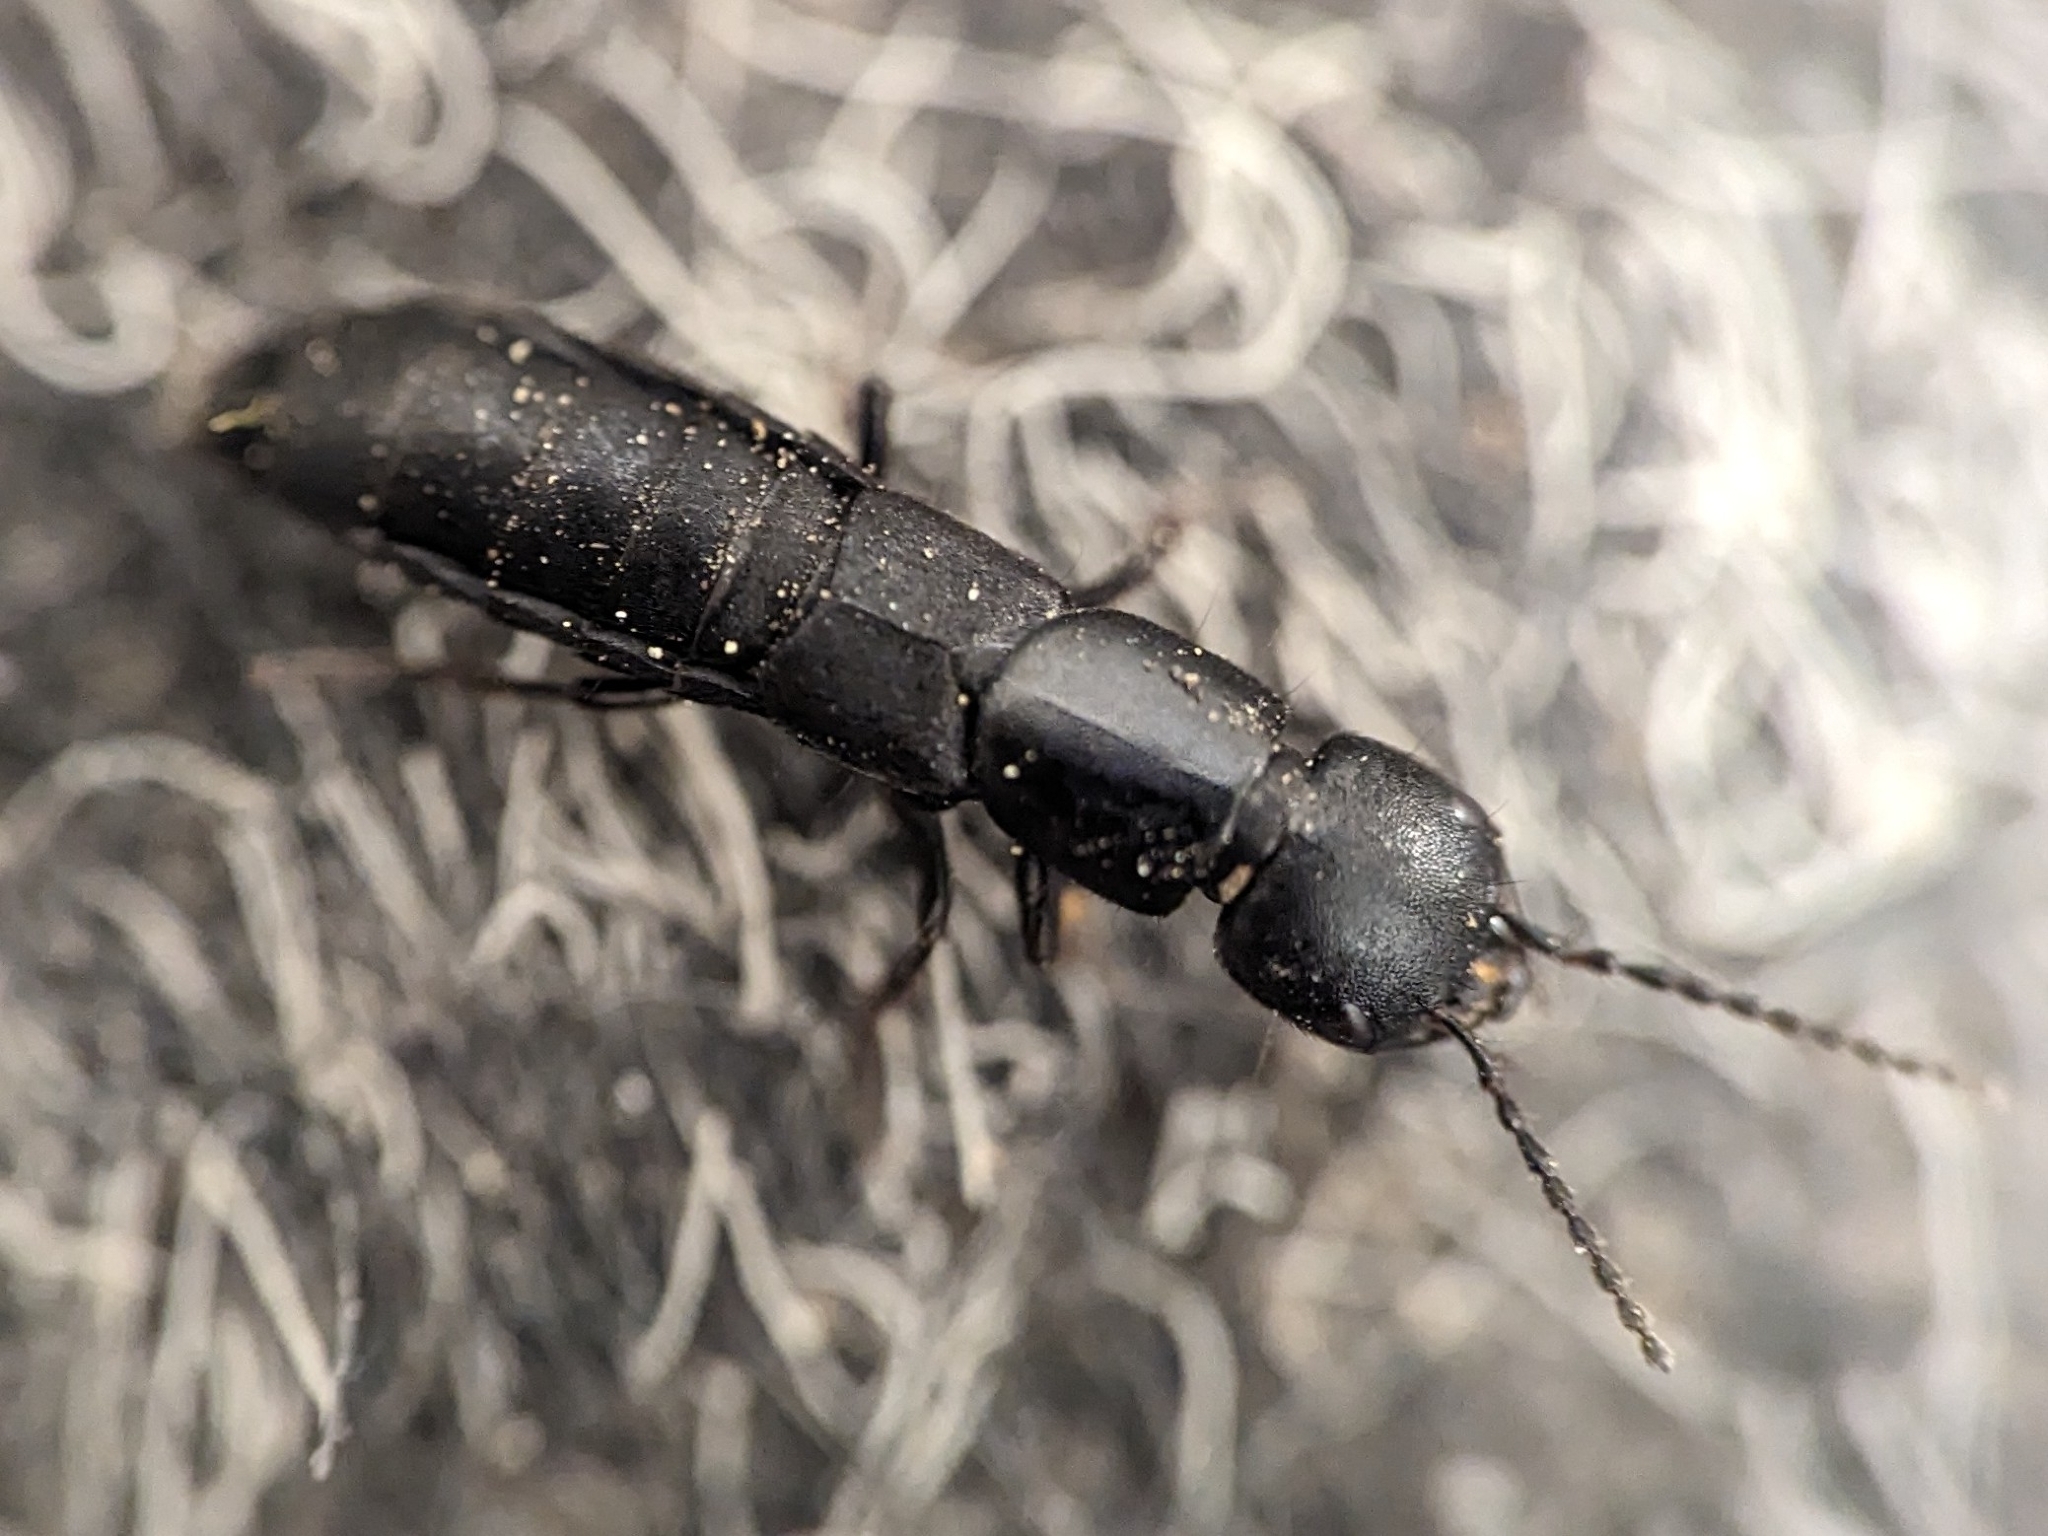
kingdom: Animalia
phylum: Arthropoda
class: Insecta
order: Coleoptera
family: Staphylinidae
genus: Ocypus
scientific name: Ocypus nitens
